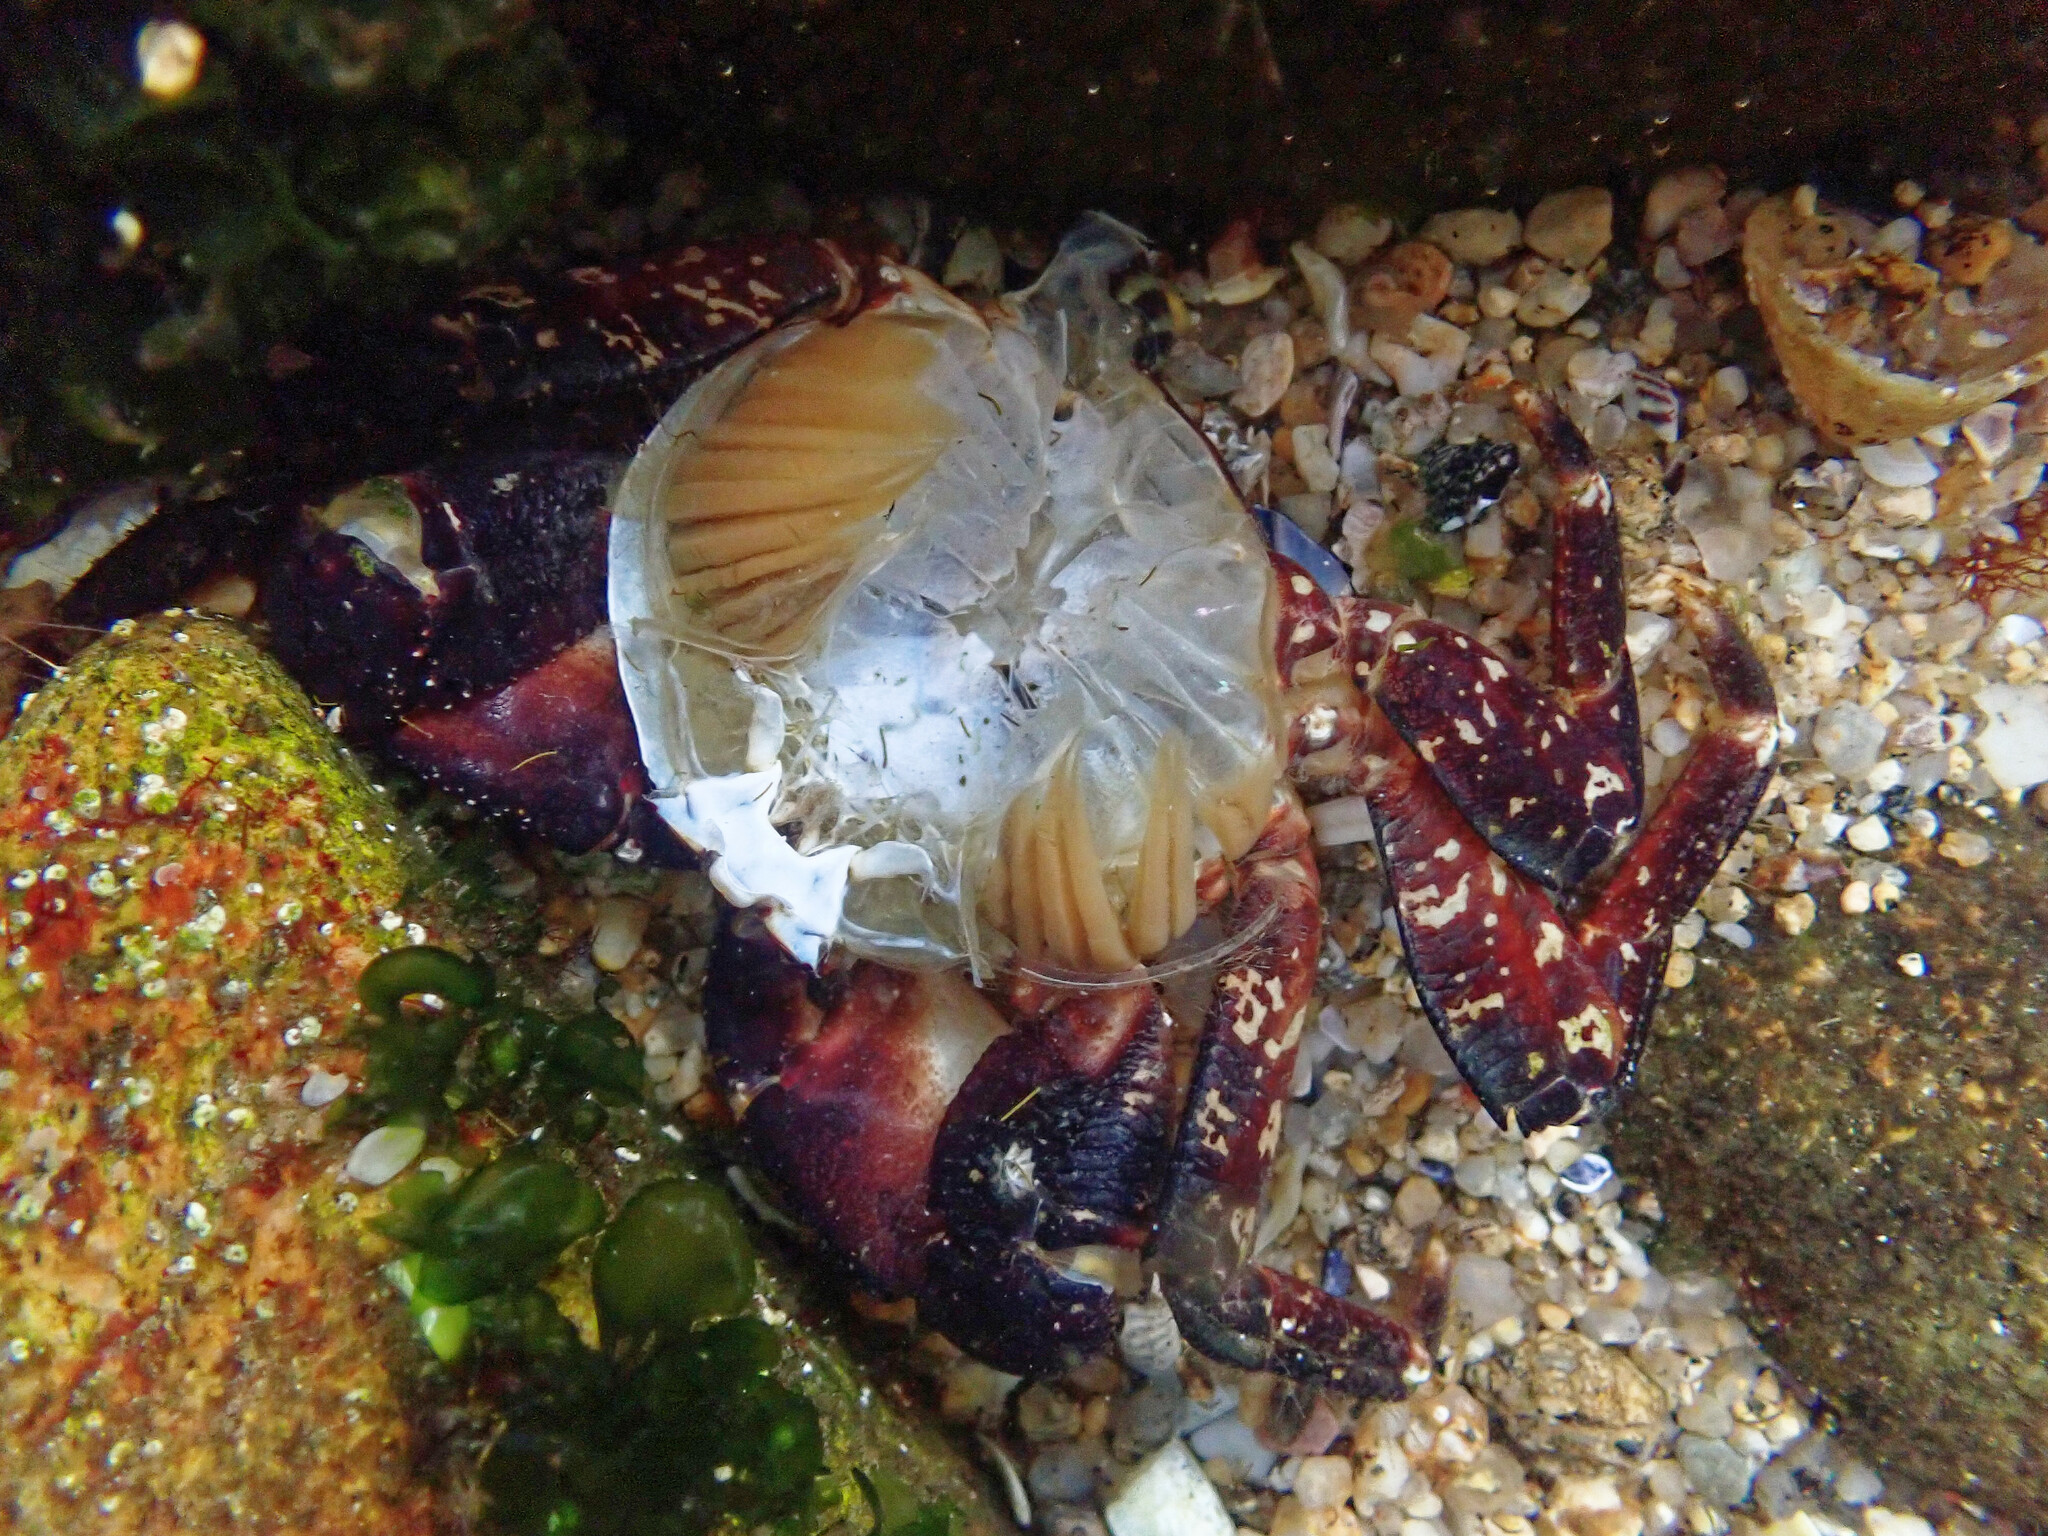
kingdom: Animalia
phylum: Arthropoda
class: Malacostraca
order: Decapoda
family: Grapsidae
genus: Pachygrapsus
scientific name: Pachygrapsus marmoratus
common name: Marbled rock crab
